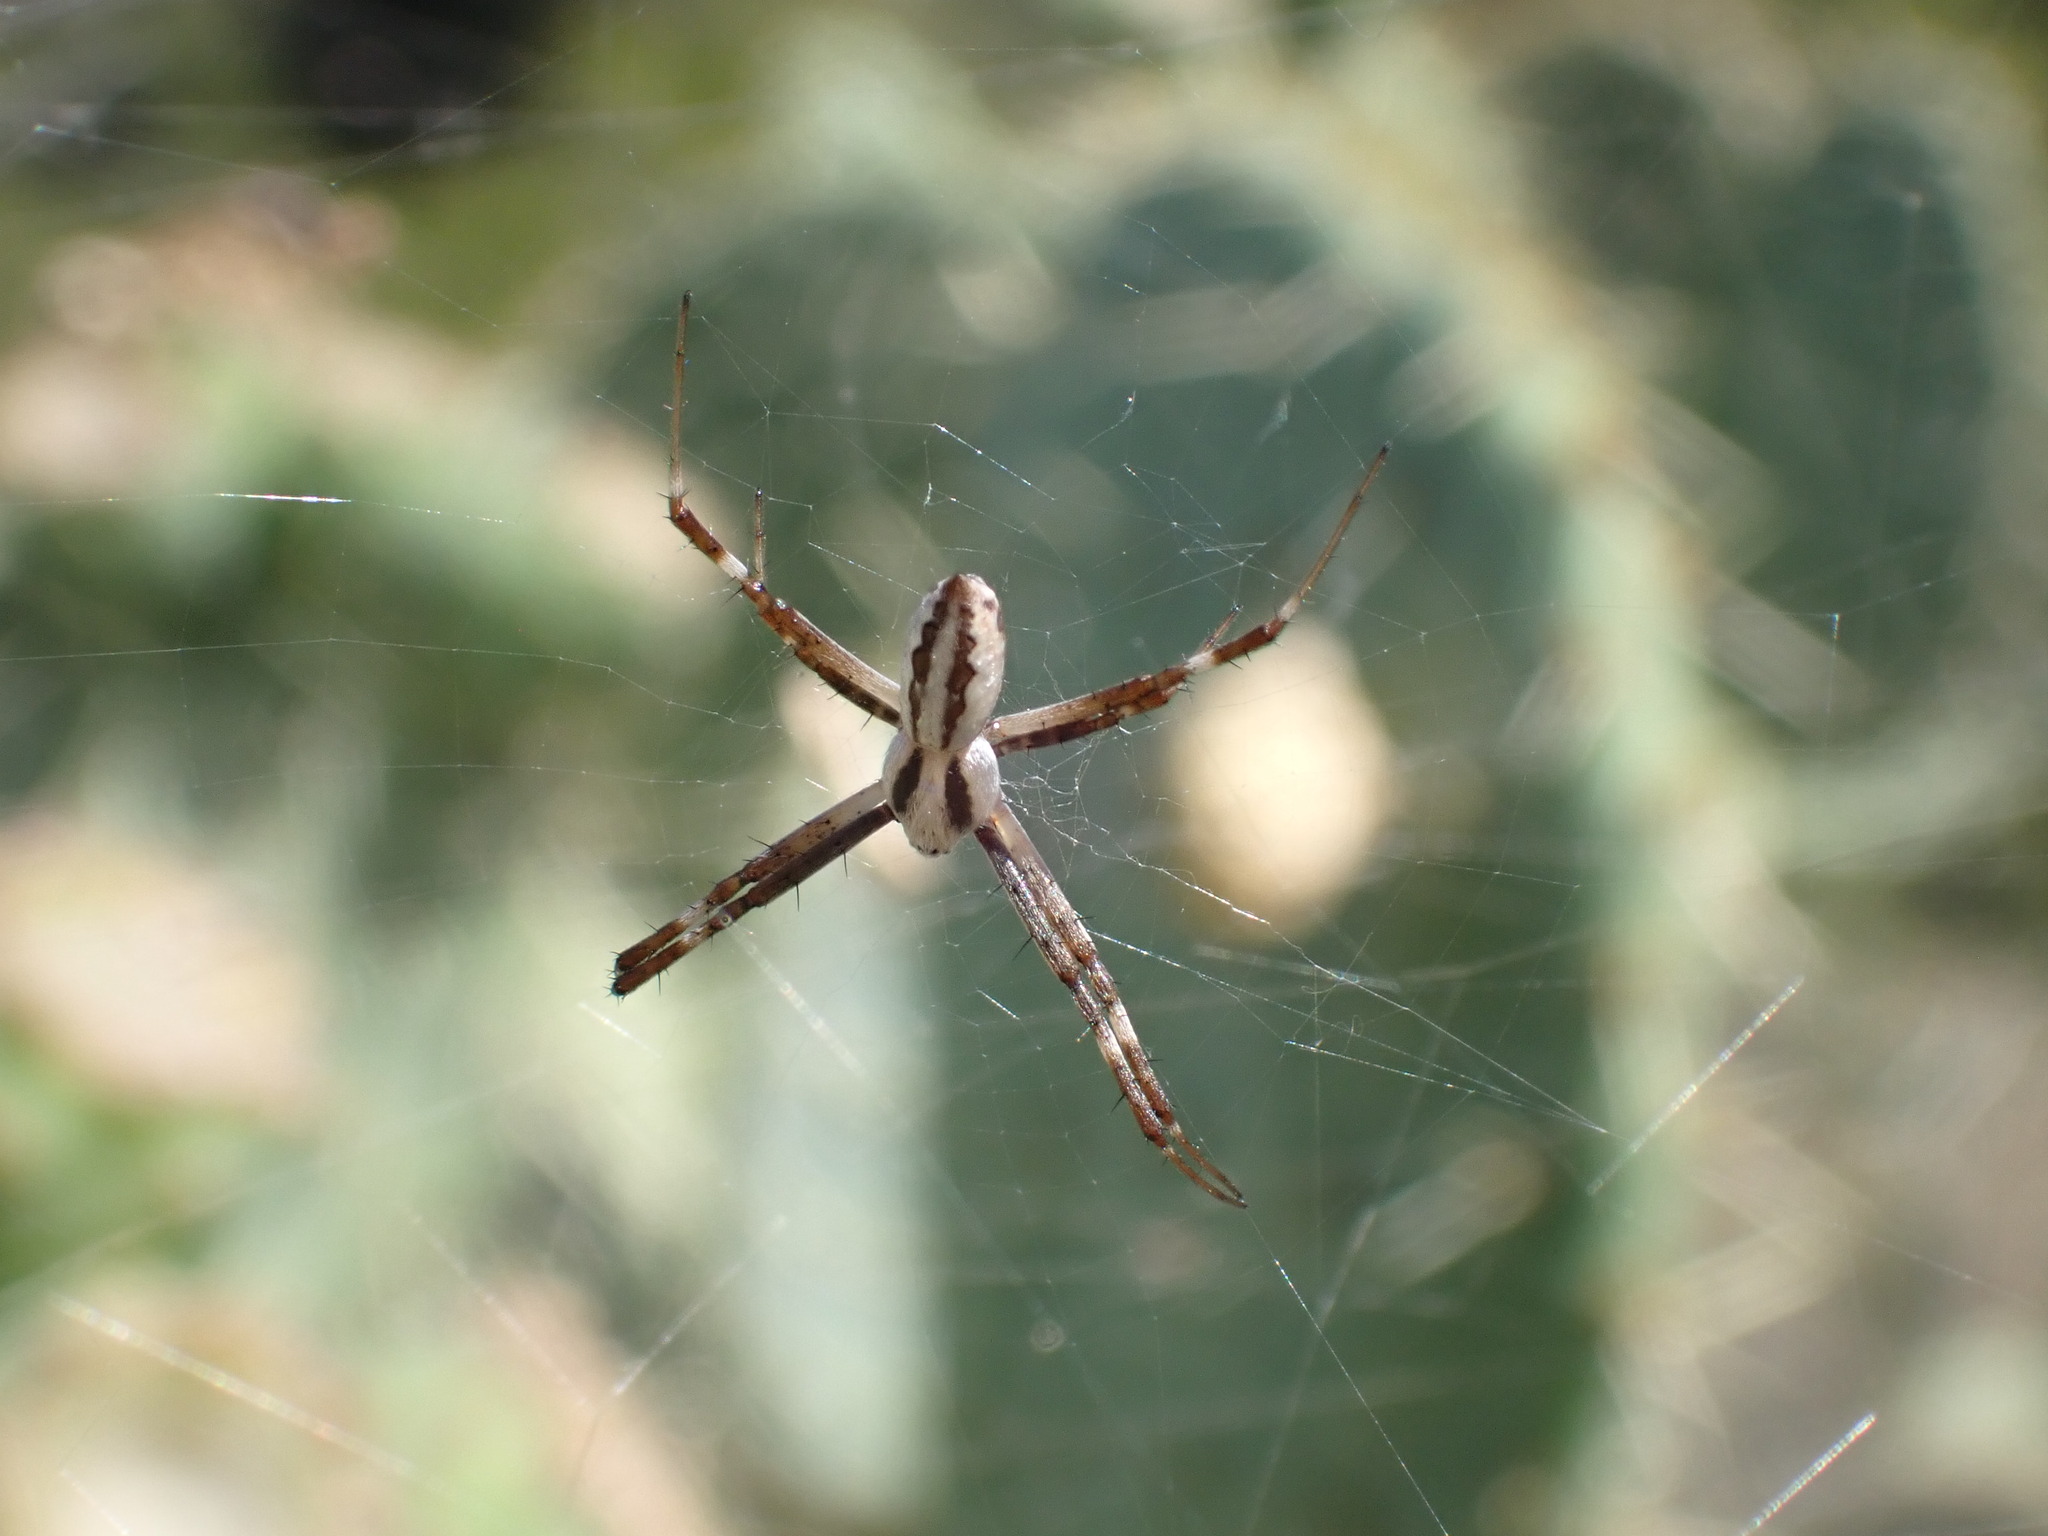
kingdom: Animalia
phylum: Arthropoda
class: Arachnida
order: Araneae
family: Araneidae
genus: Argiope
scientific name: Argiope lobata
